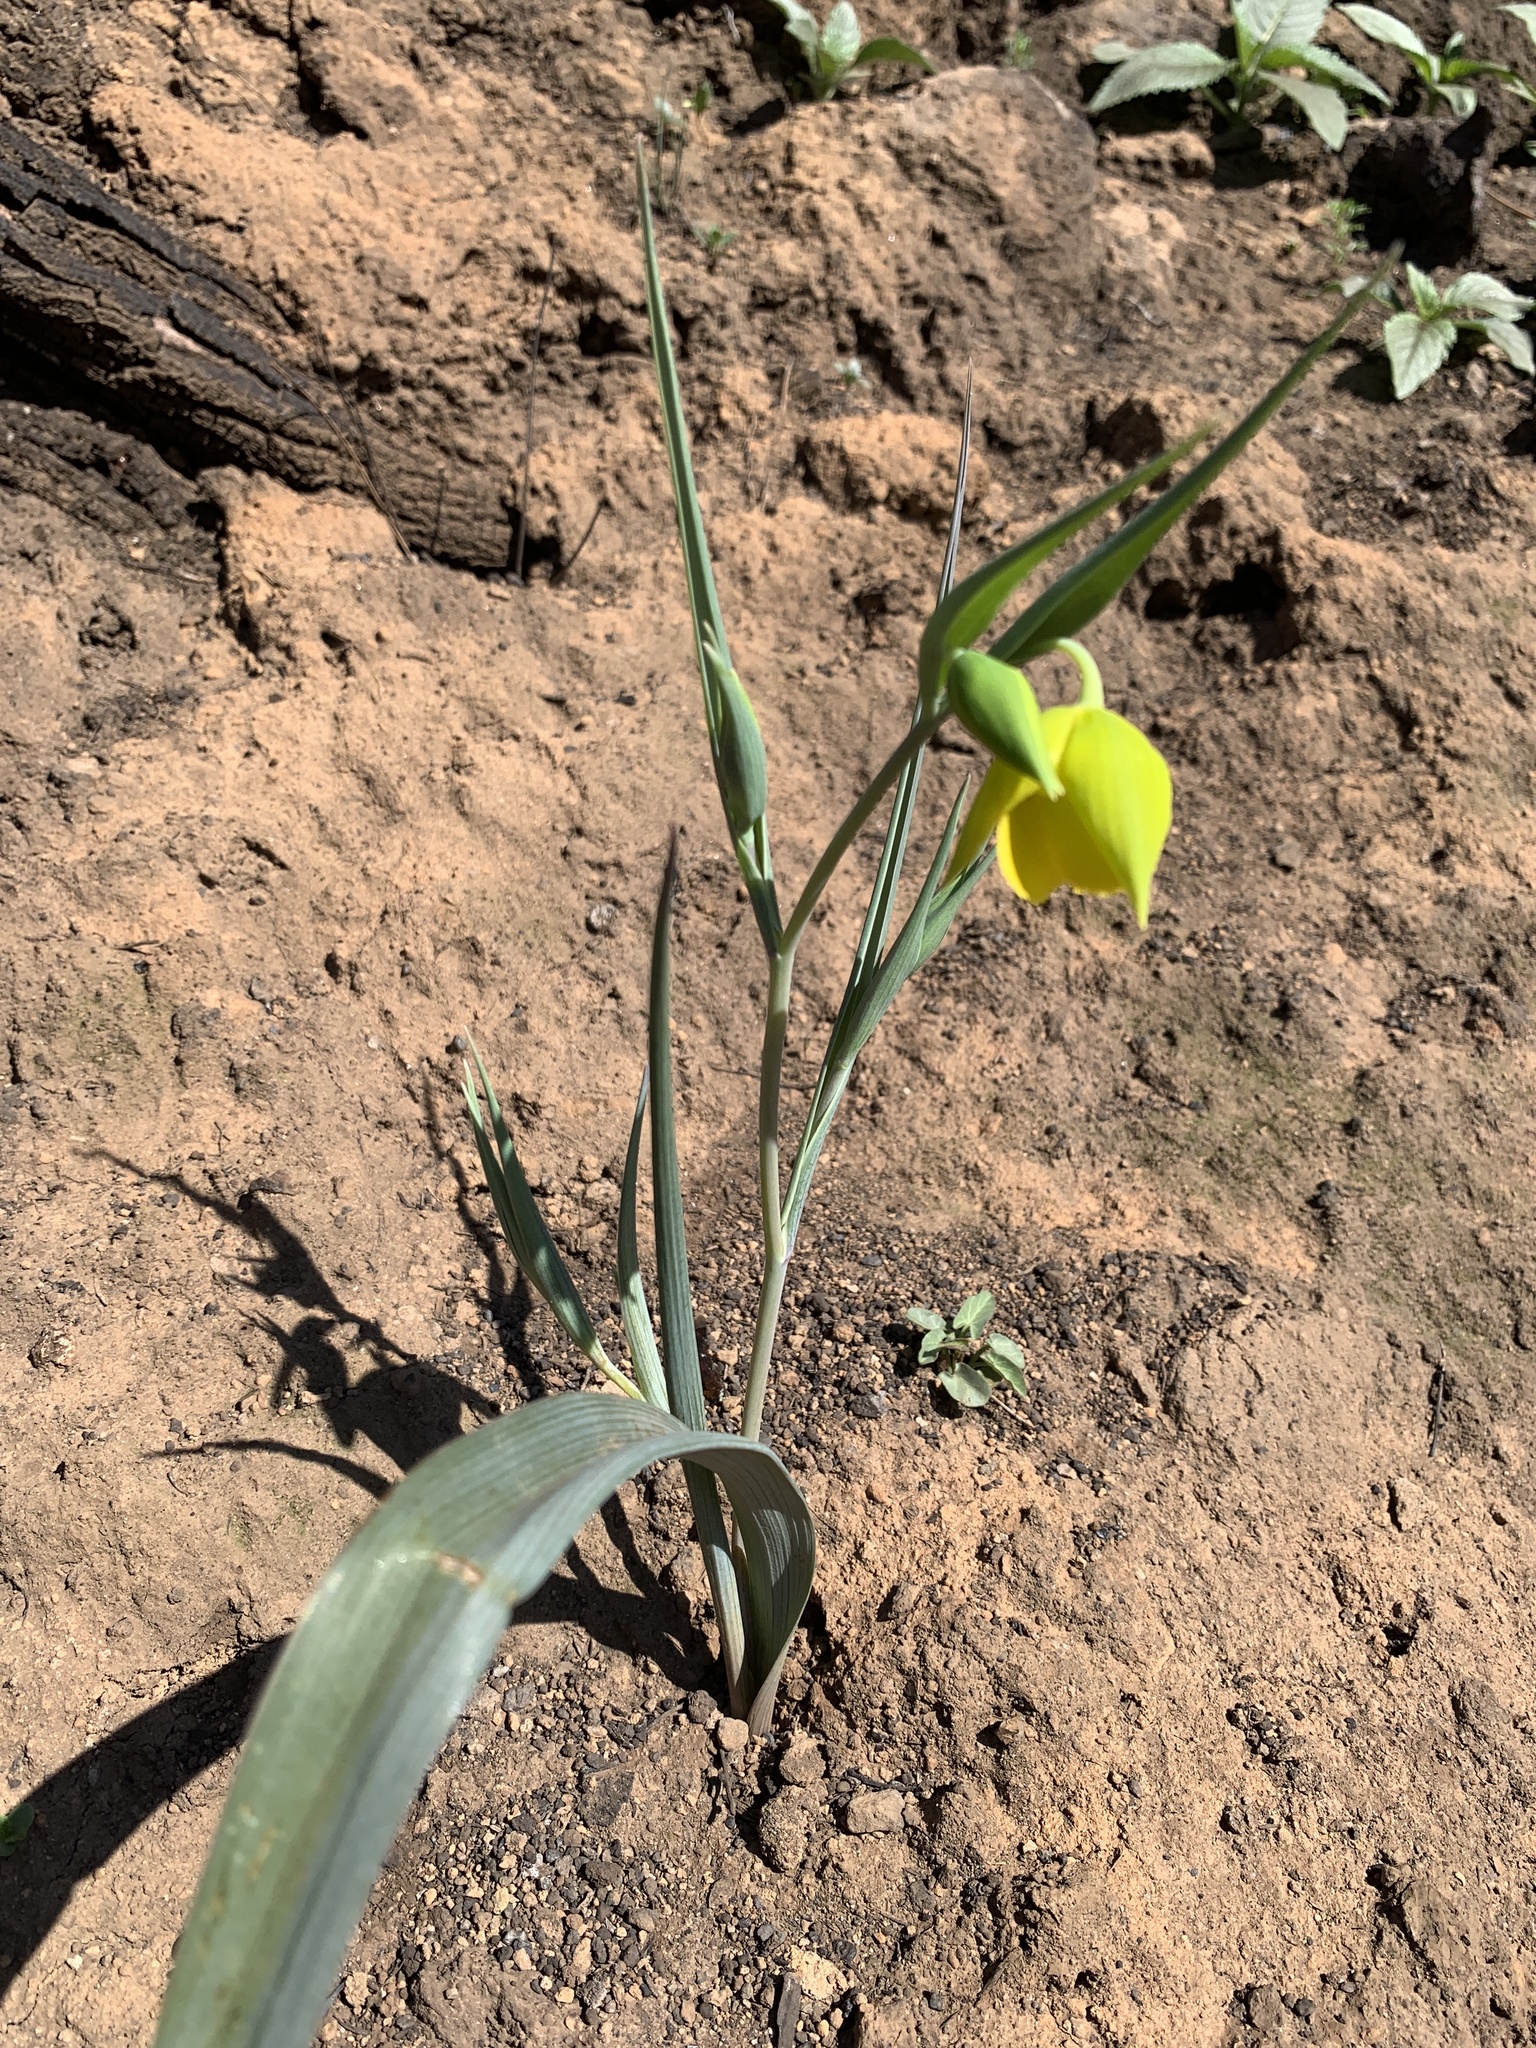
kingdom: Plantae
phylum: Tracheophyta
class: Liliopsida
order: Liliales
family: Liliaceae
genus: Calochortus
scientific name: Calochortus amabilis
